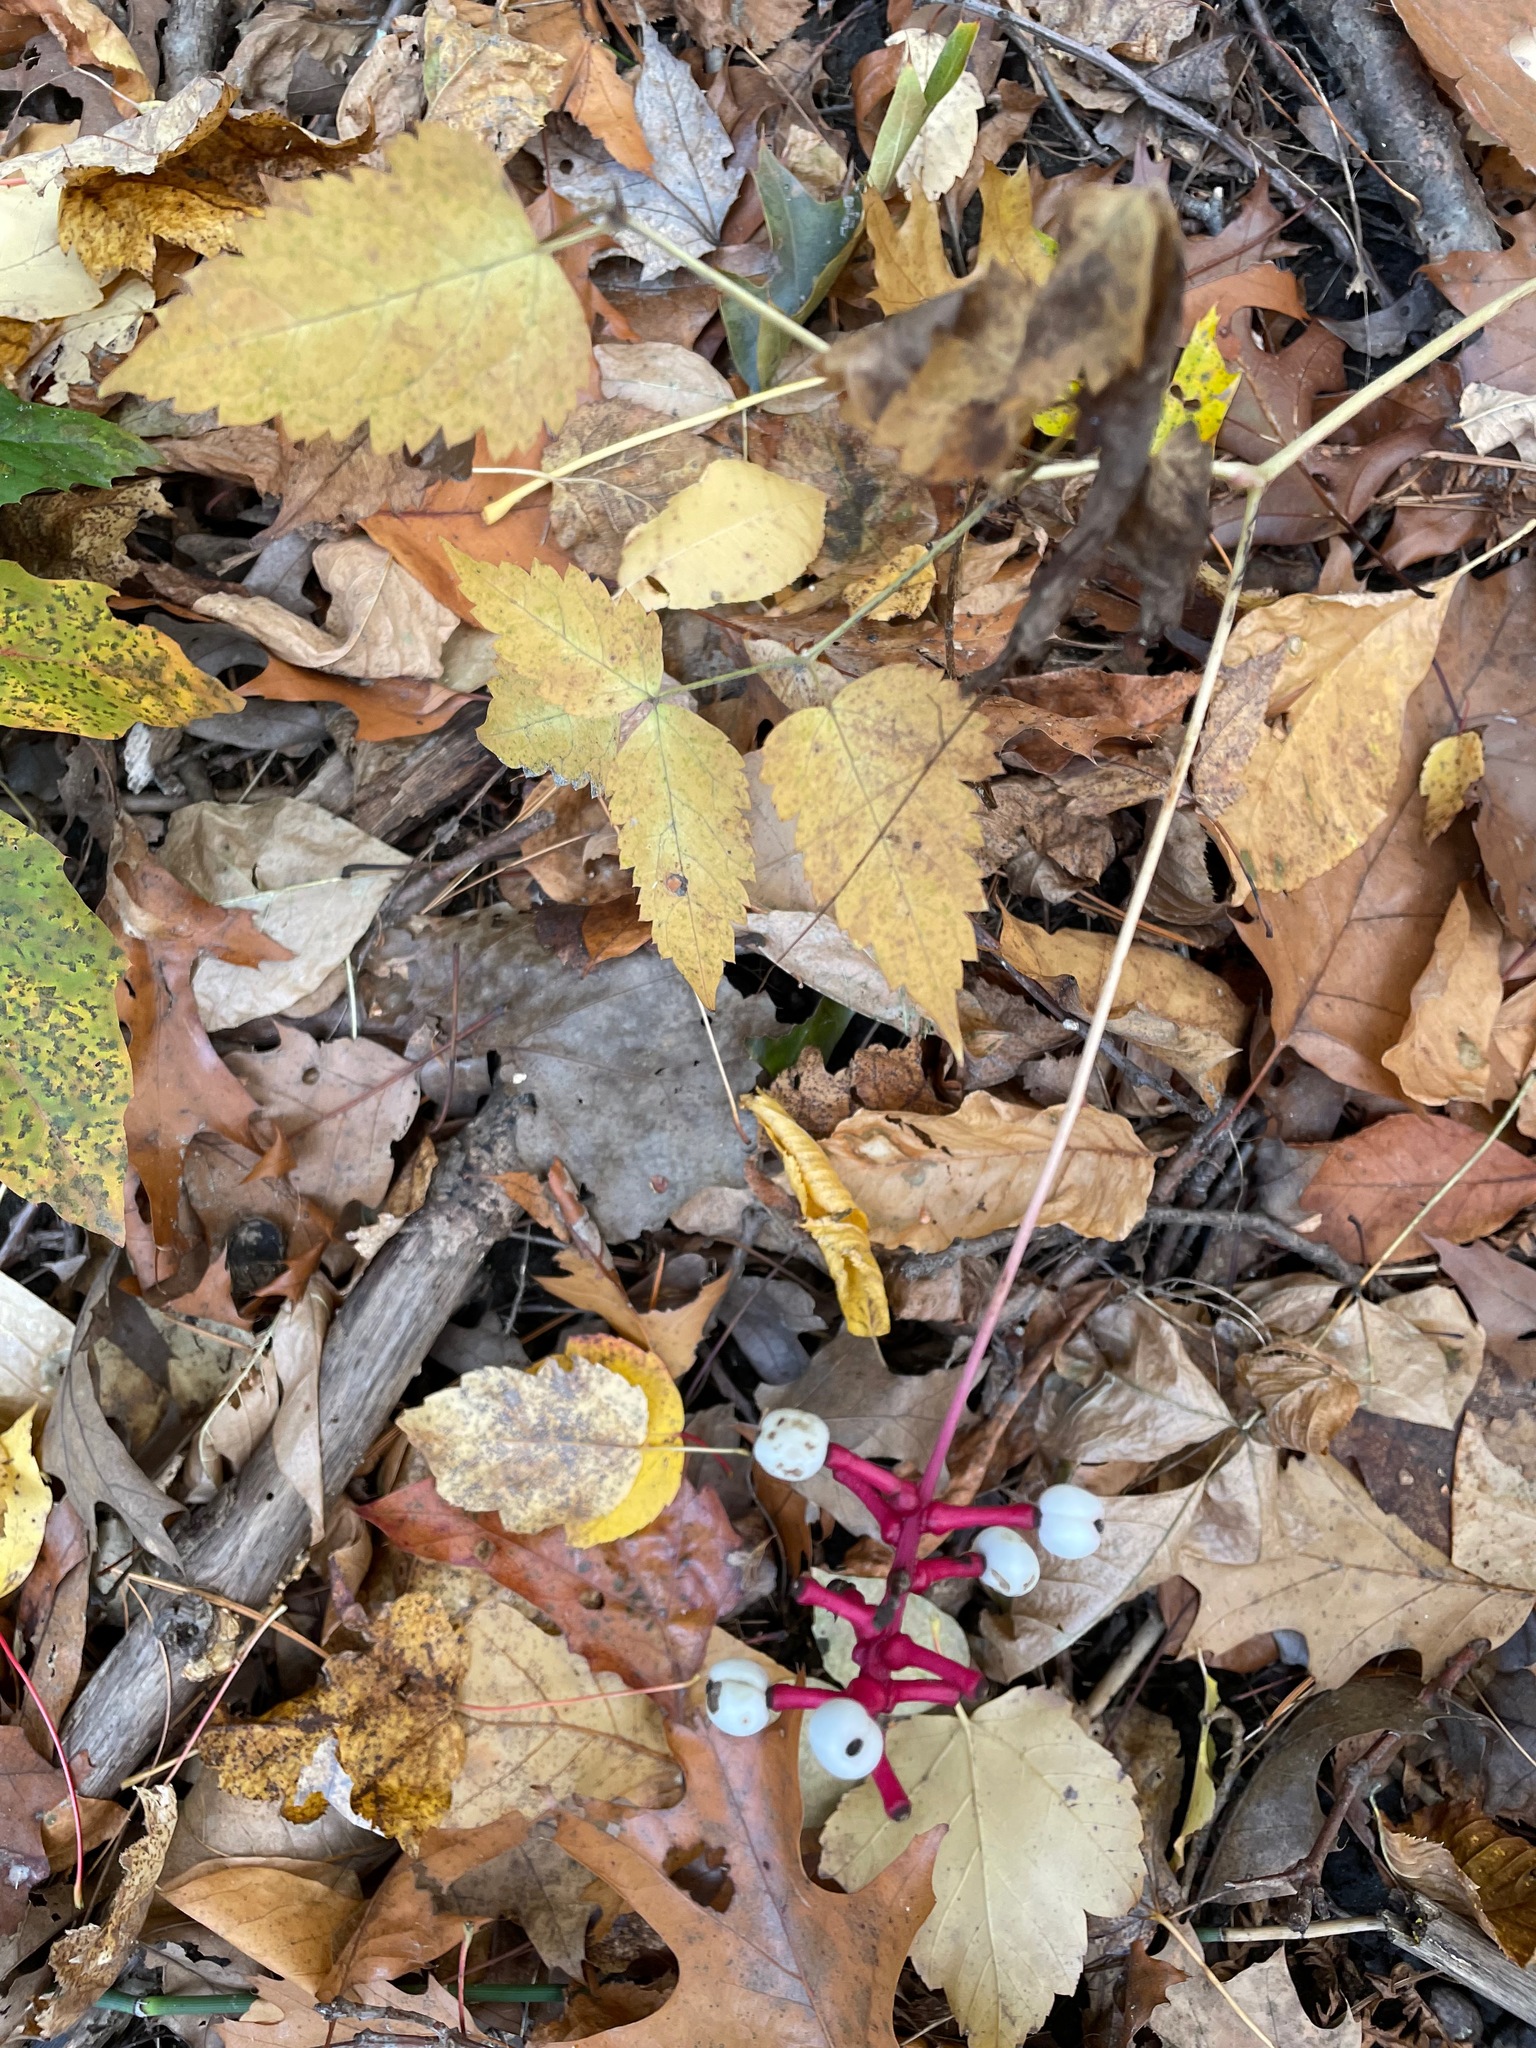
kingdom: Plantae
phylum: Tracheophyta
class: Magnoliopsida
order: Ranunculales
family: Ranunculaceae
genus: Actaea
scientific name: Actaea pachypoda
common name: Doll's-eyes
